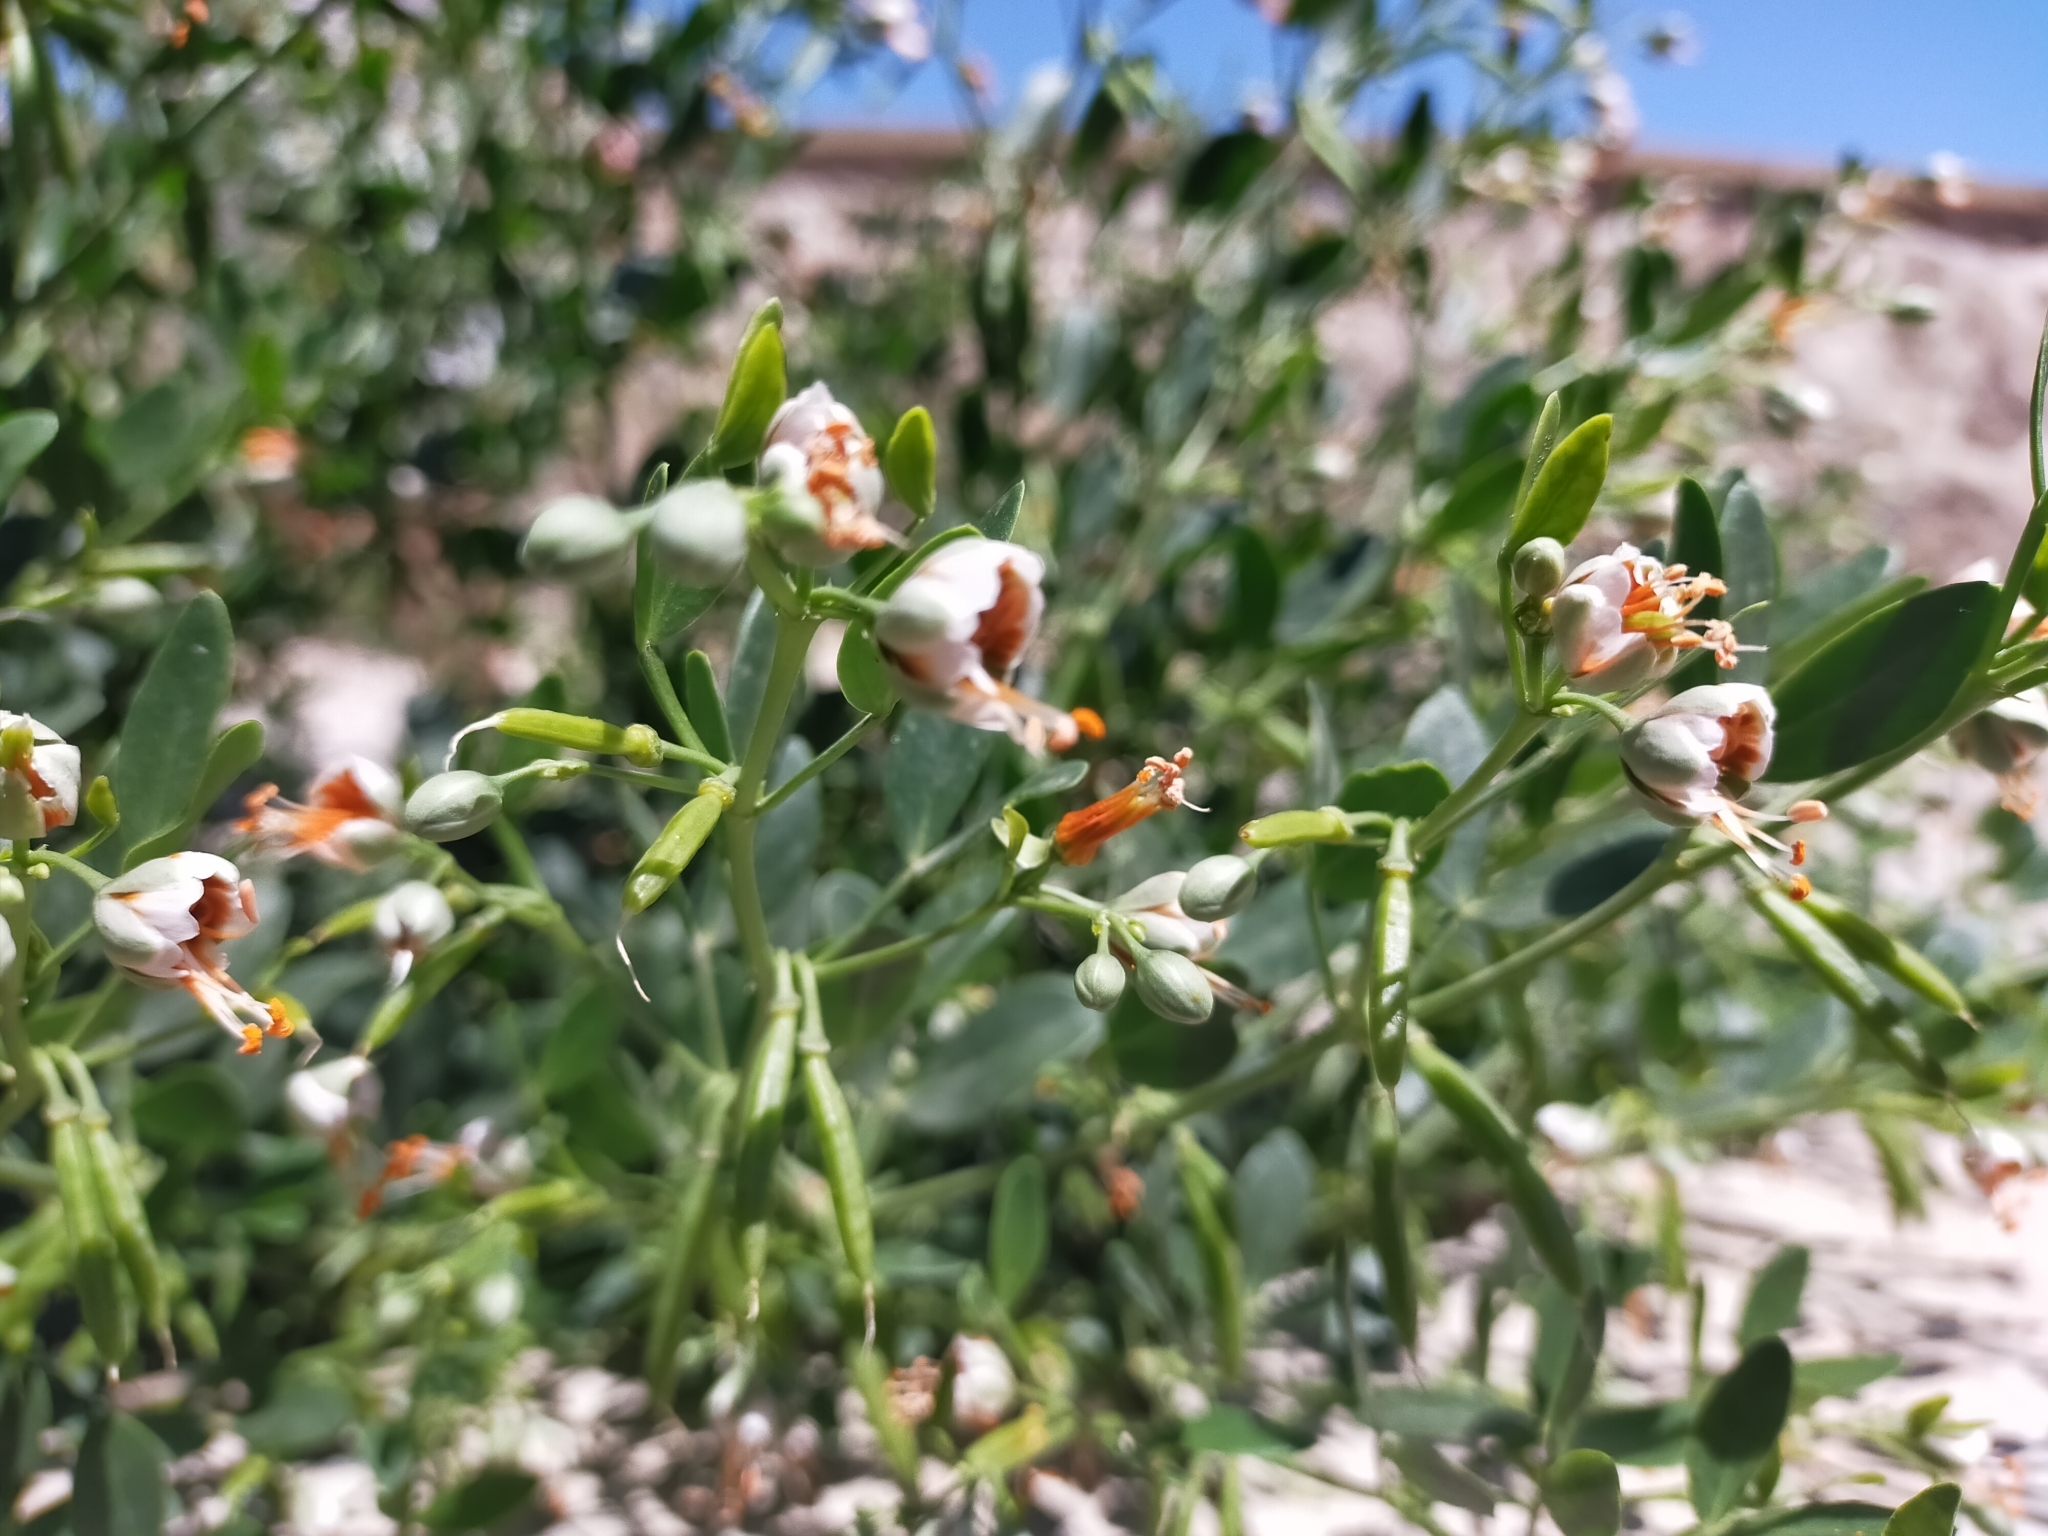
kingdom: Plantae
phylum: Tracheophyta
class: Magnoliopsida
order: Zygophyllales
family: Zygophyllaceae
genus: Zygophyllum
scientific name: Zygophyllum fabago
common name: Syrian beancaper
